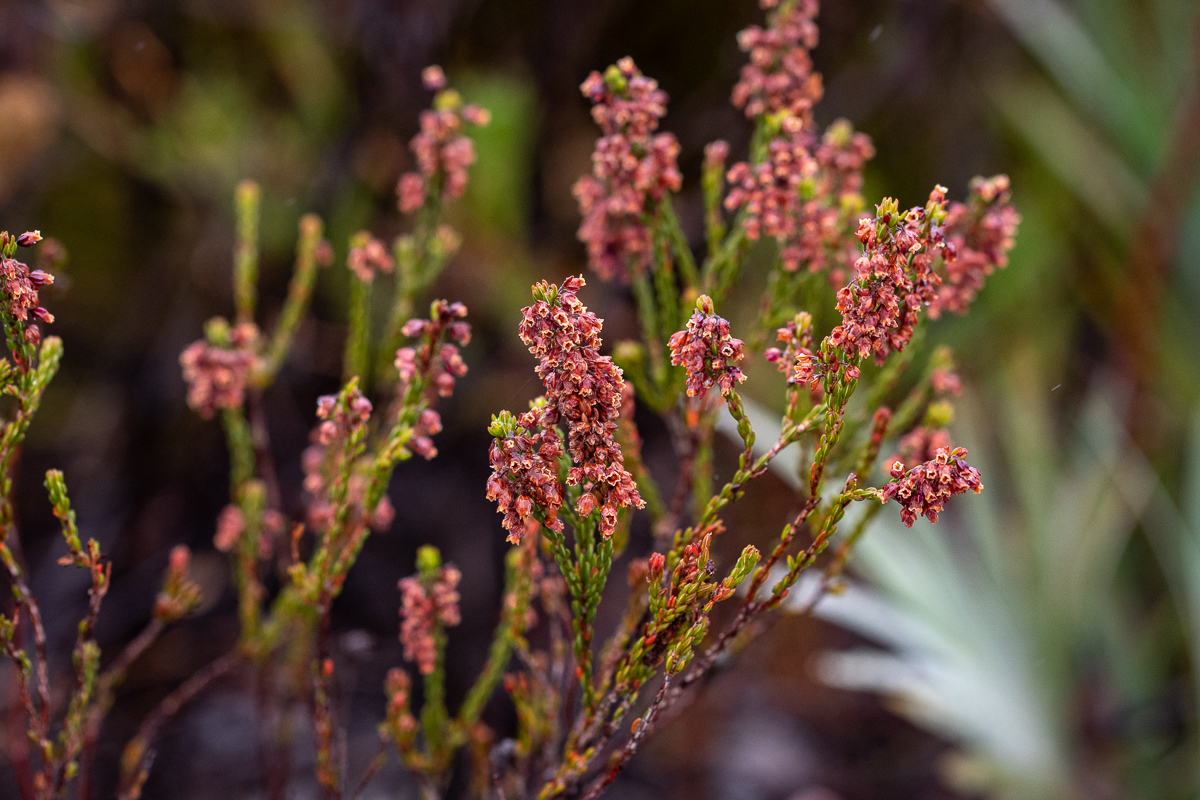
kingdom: Plantae
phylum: Tracheophyta
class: Magnoliopsida
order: Ericales
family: Ericaceae
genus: Erica
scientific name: Erica pulchella
